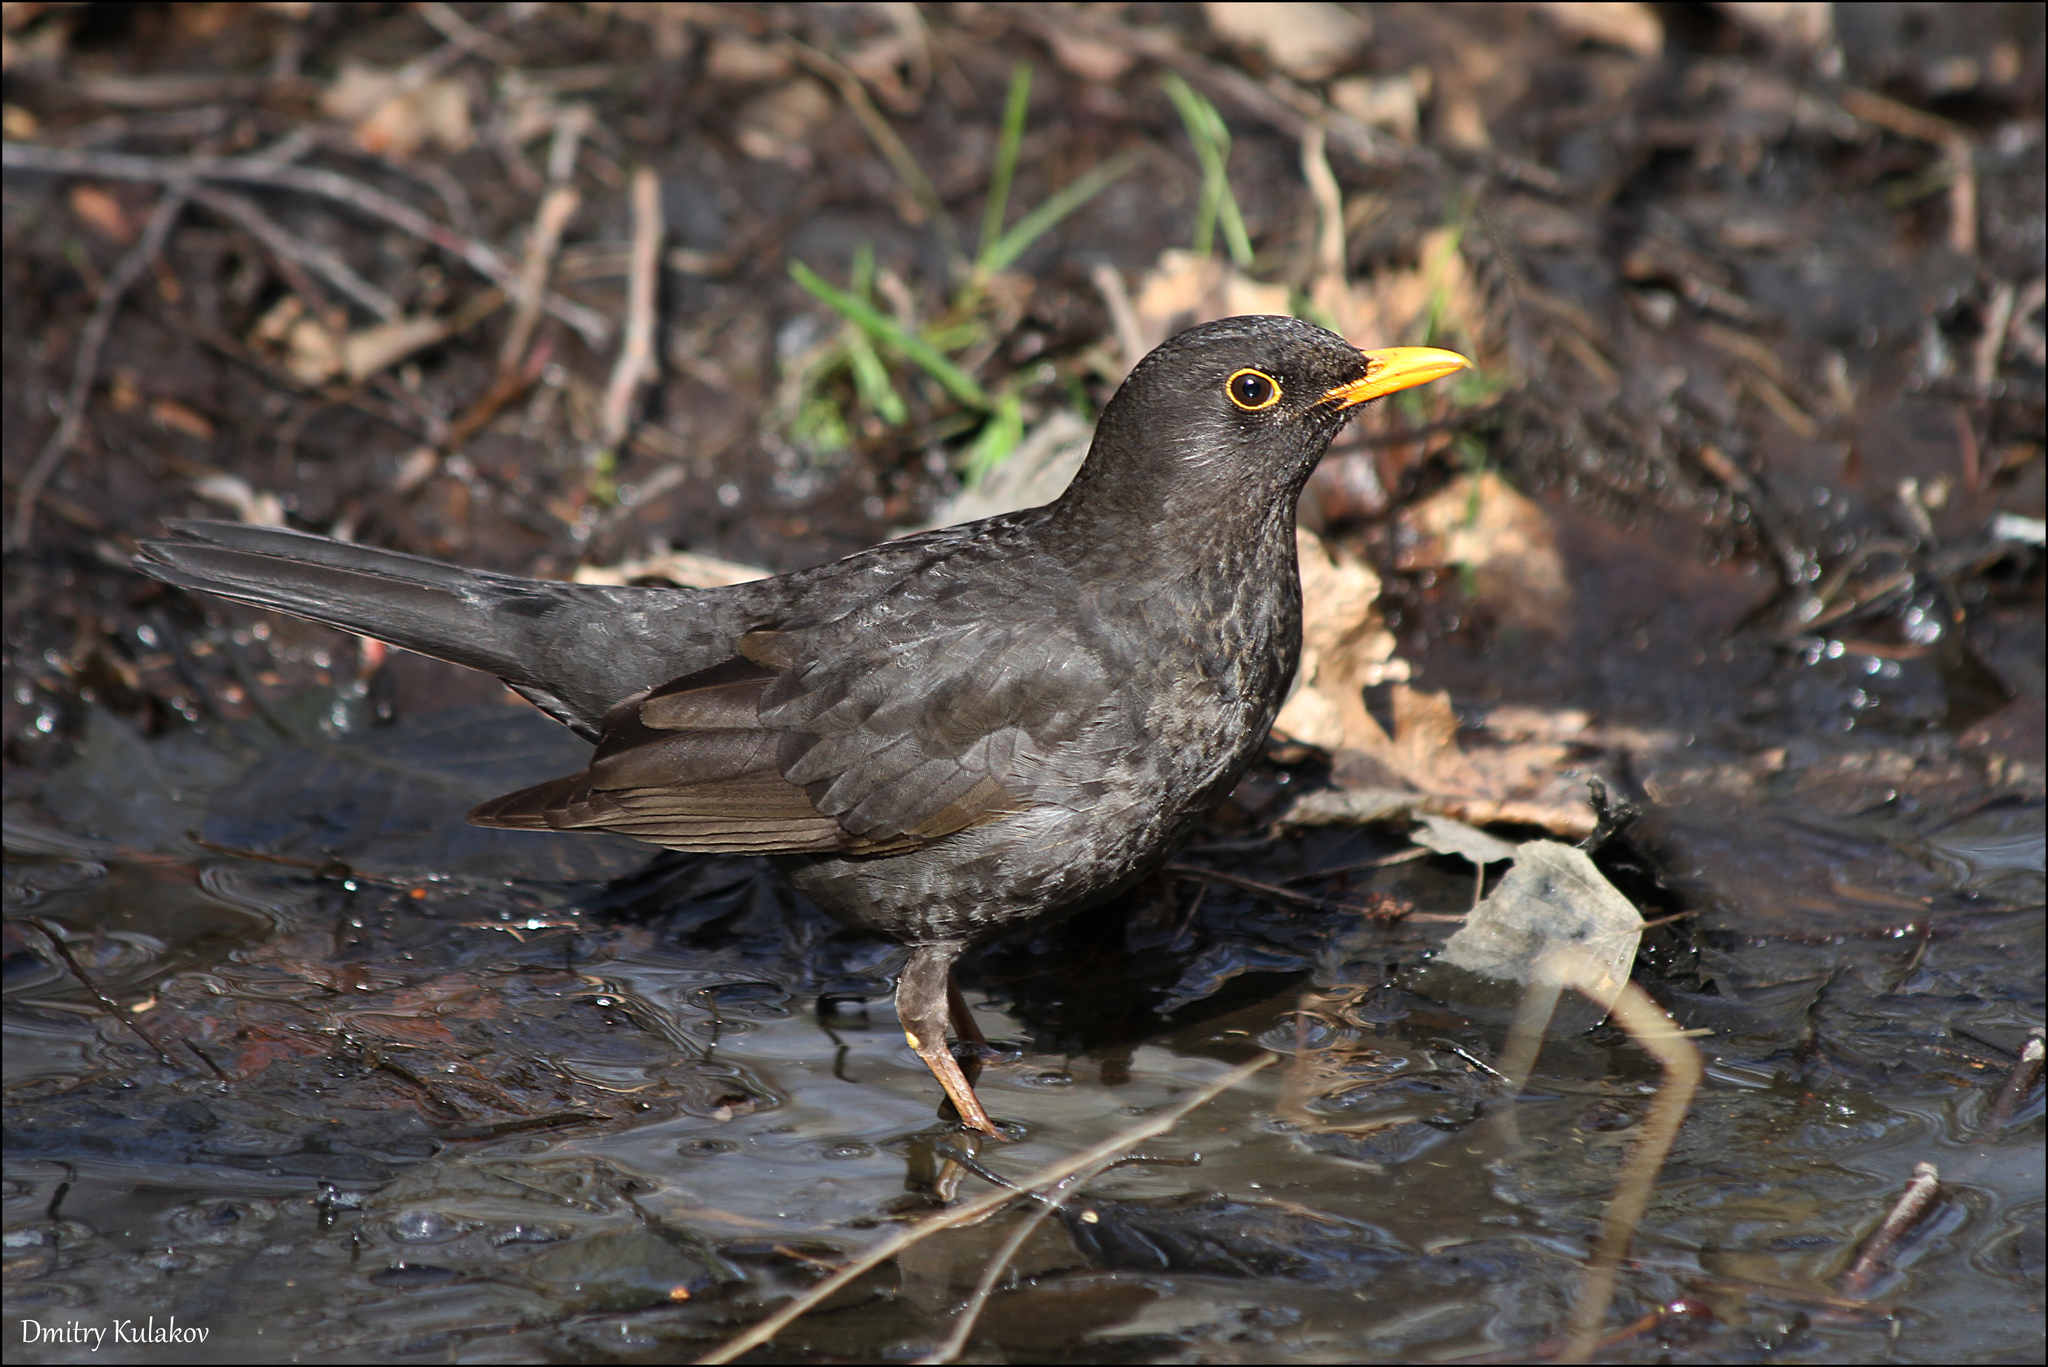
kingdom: Animalia
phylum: Chordata
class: Aves
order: Passeriformes
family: Turdidae
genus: Turdus
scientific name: Turdus merula
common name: Common blackbird
